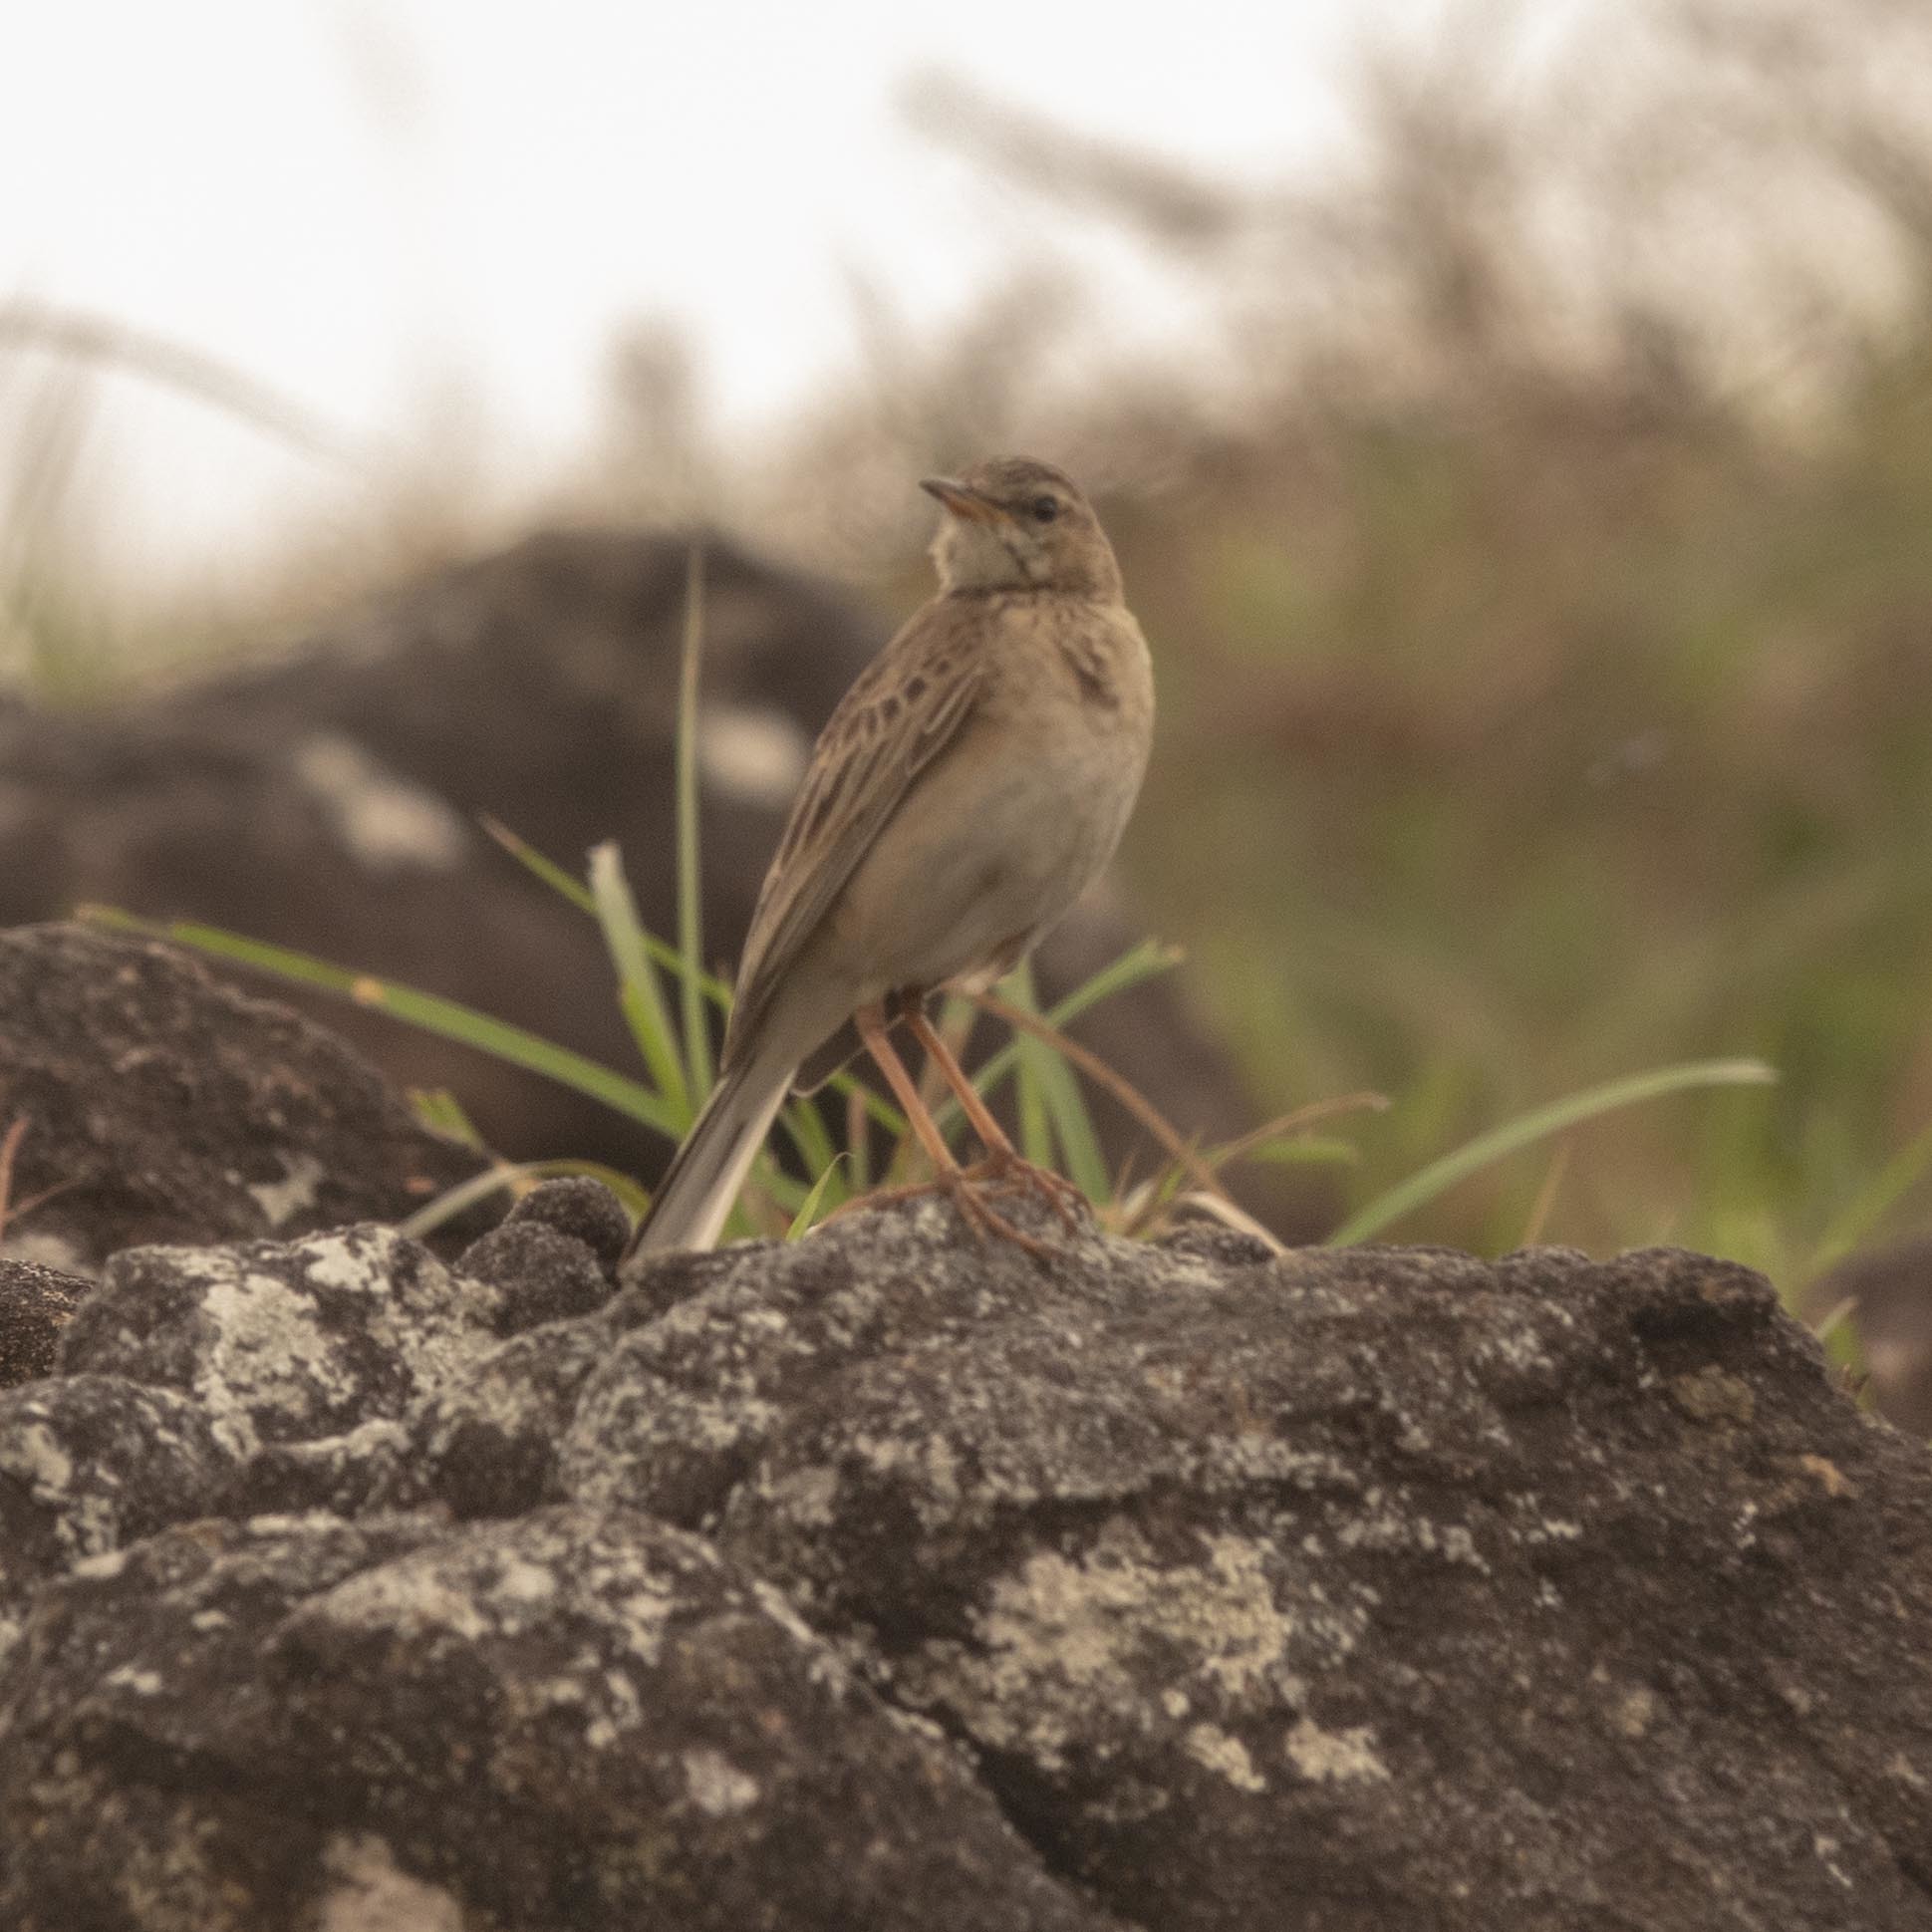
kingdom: Animalia
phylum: Chordata
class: Aves
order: Passeriformes
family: Motacillidae
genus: Anthus
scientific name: Anthus rufulus
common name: Paddyfield pipit
